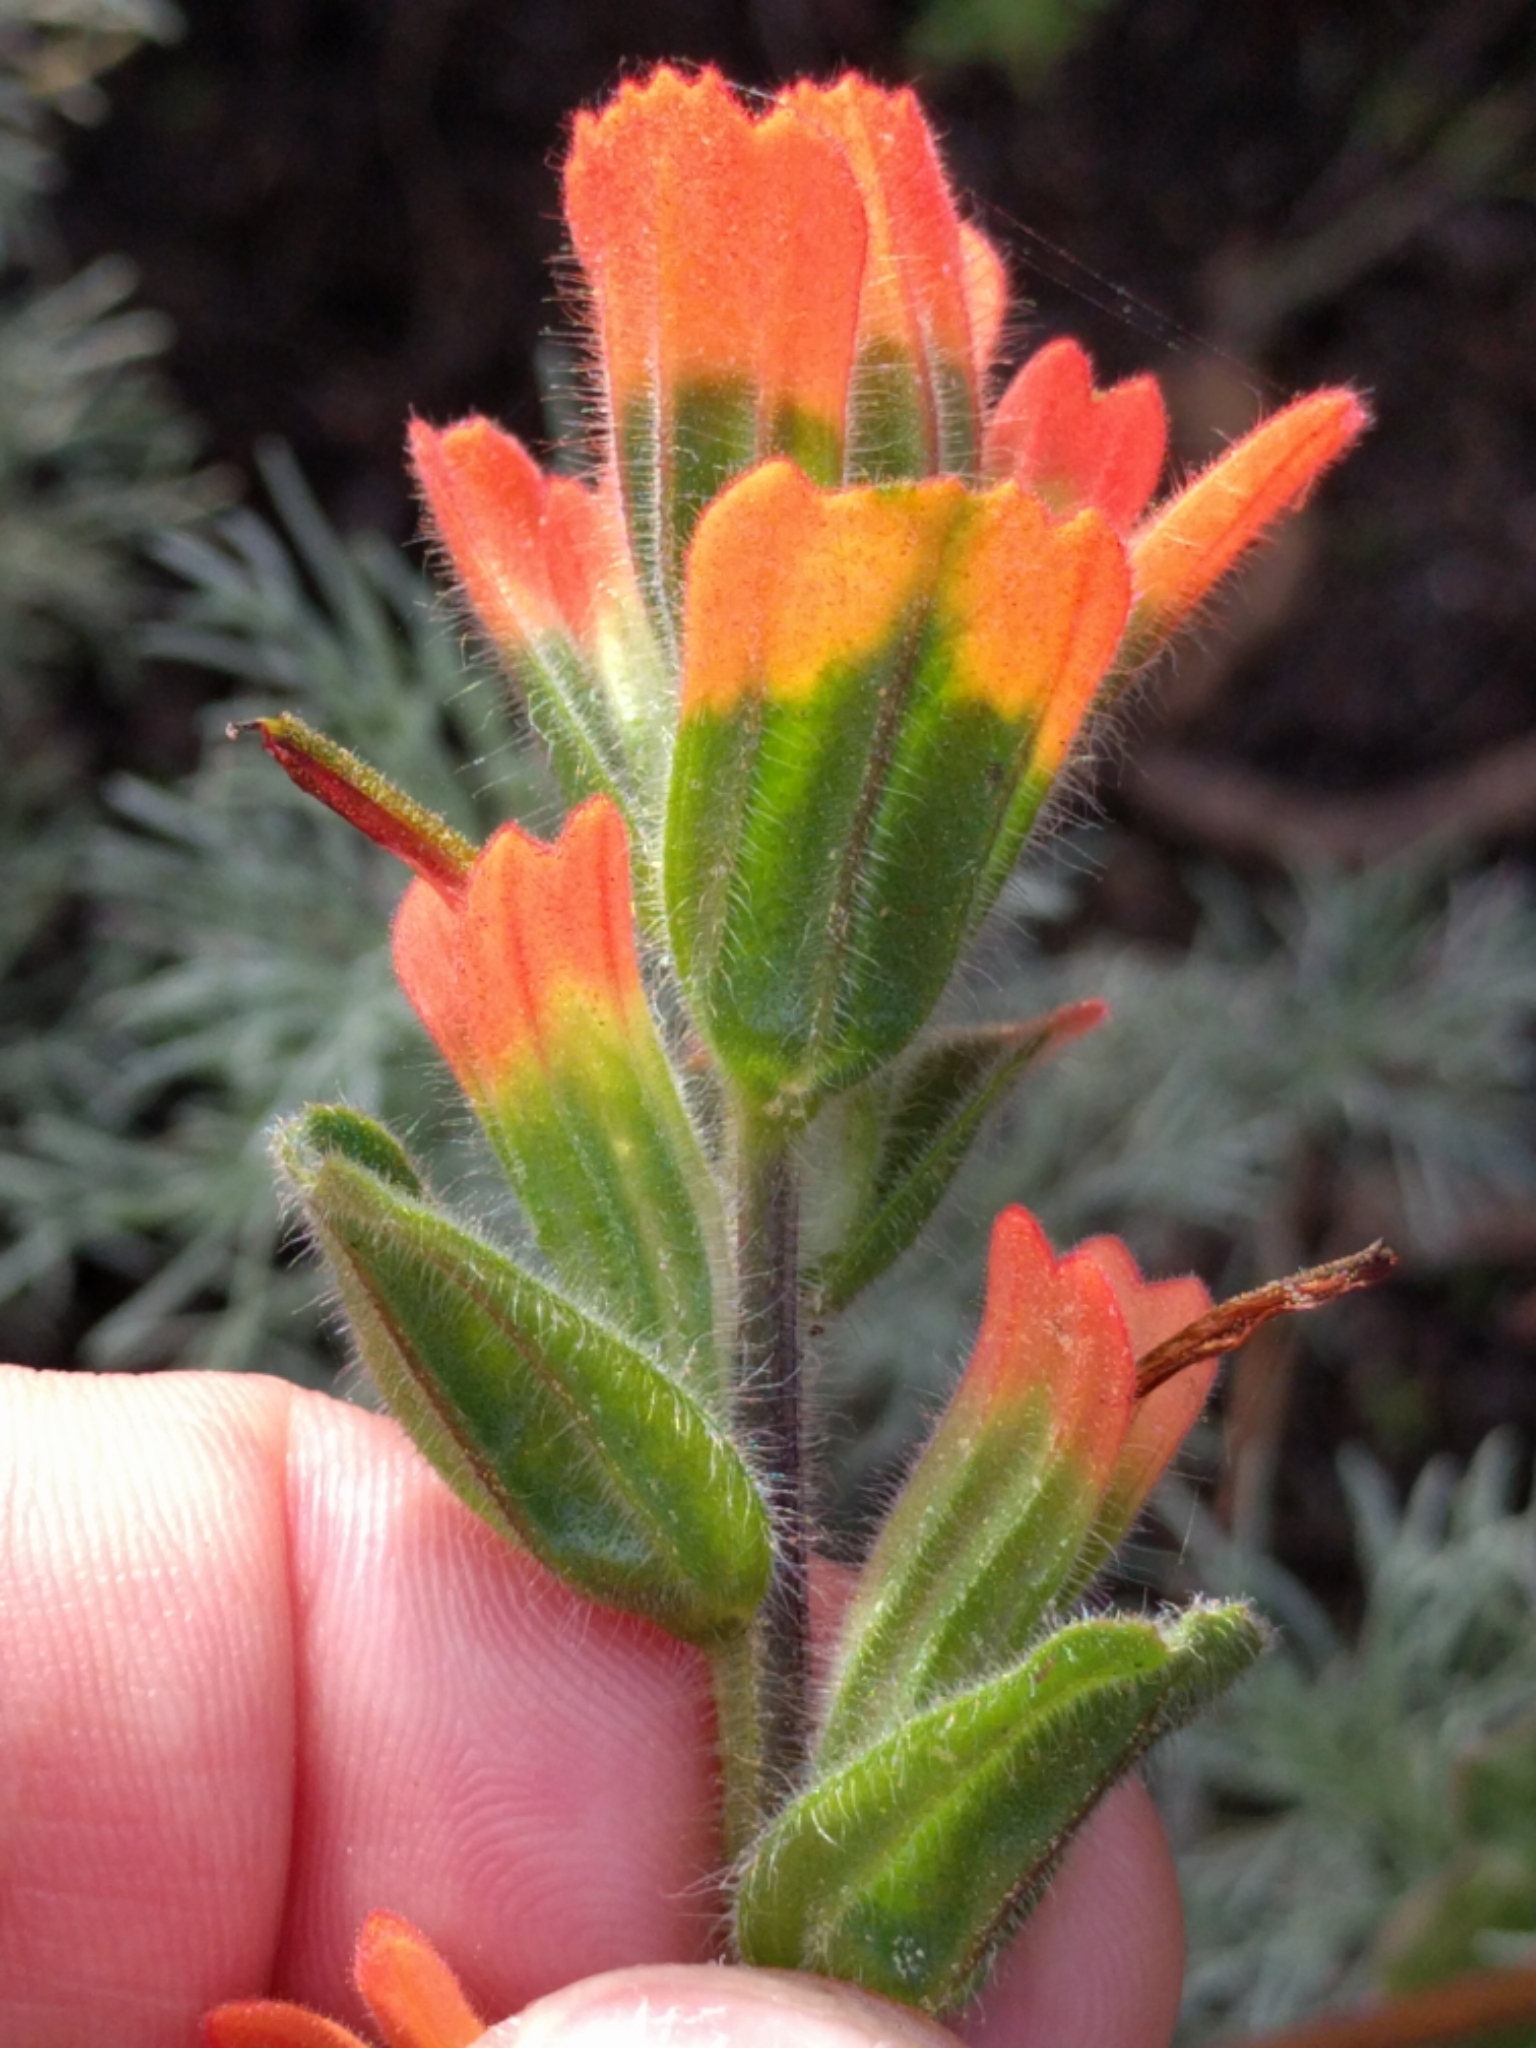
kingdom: Plantae
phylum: Tracheophyta
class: Magnoliopsida
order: Lamiales
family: Orobanchaceae
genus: Castilleja
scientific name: Castilleja latifolia
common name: Monterey indian paintbrush
